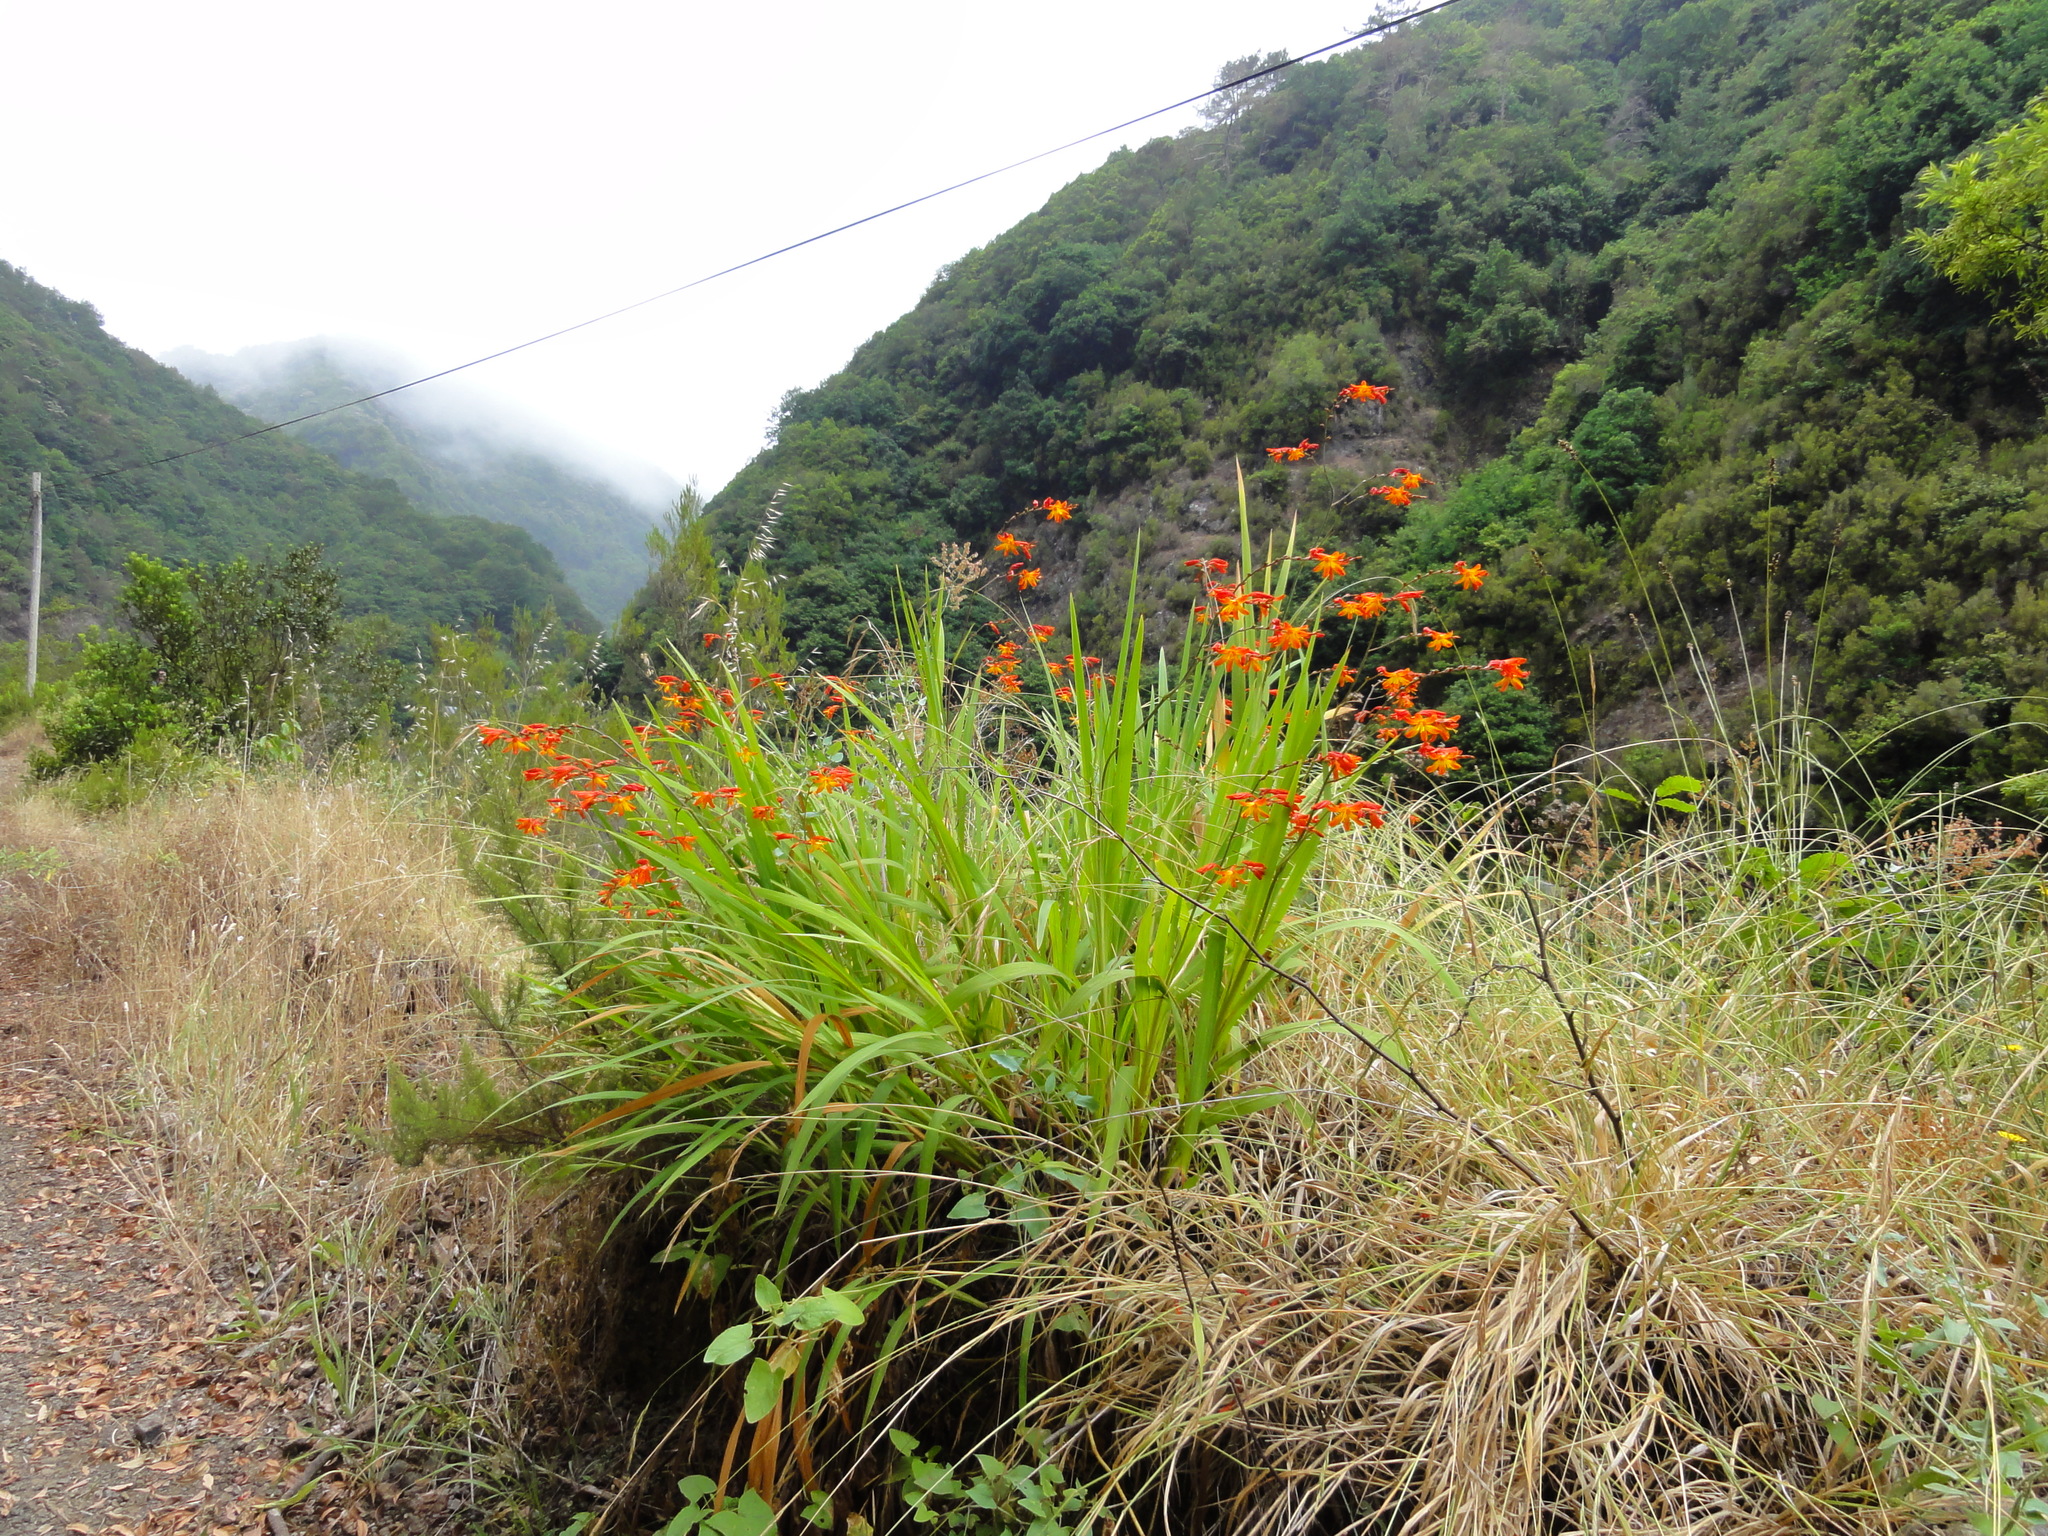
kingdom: Plantae
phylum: Tracheophyta
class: Liliopsida
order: Asparagales
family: Iridaceae
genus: Crocosmia
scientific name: Crocosmia crocosmiiflora
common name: Montbretia
